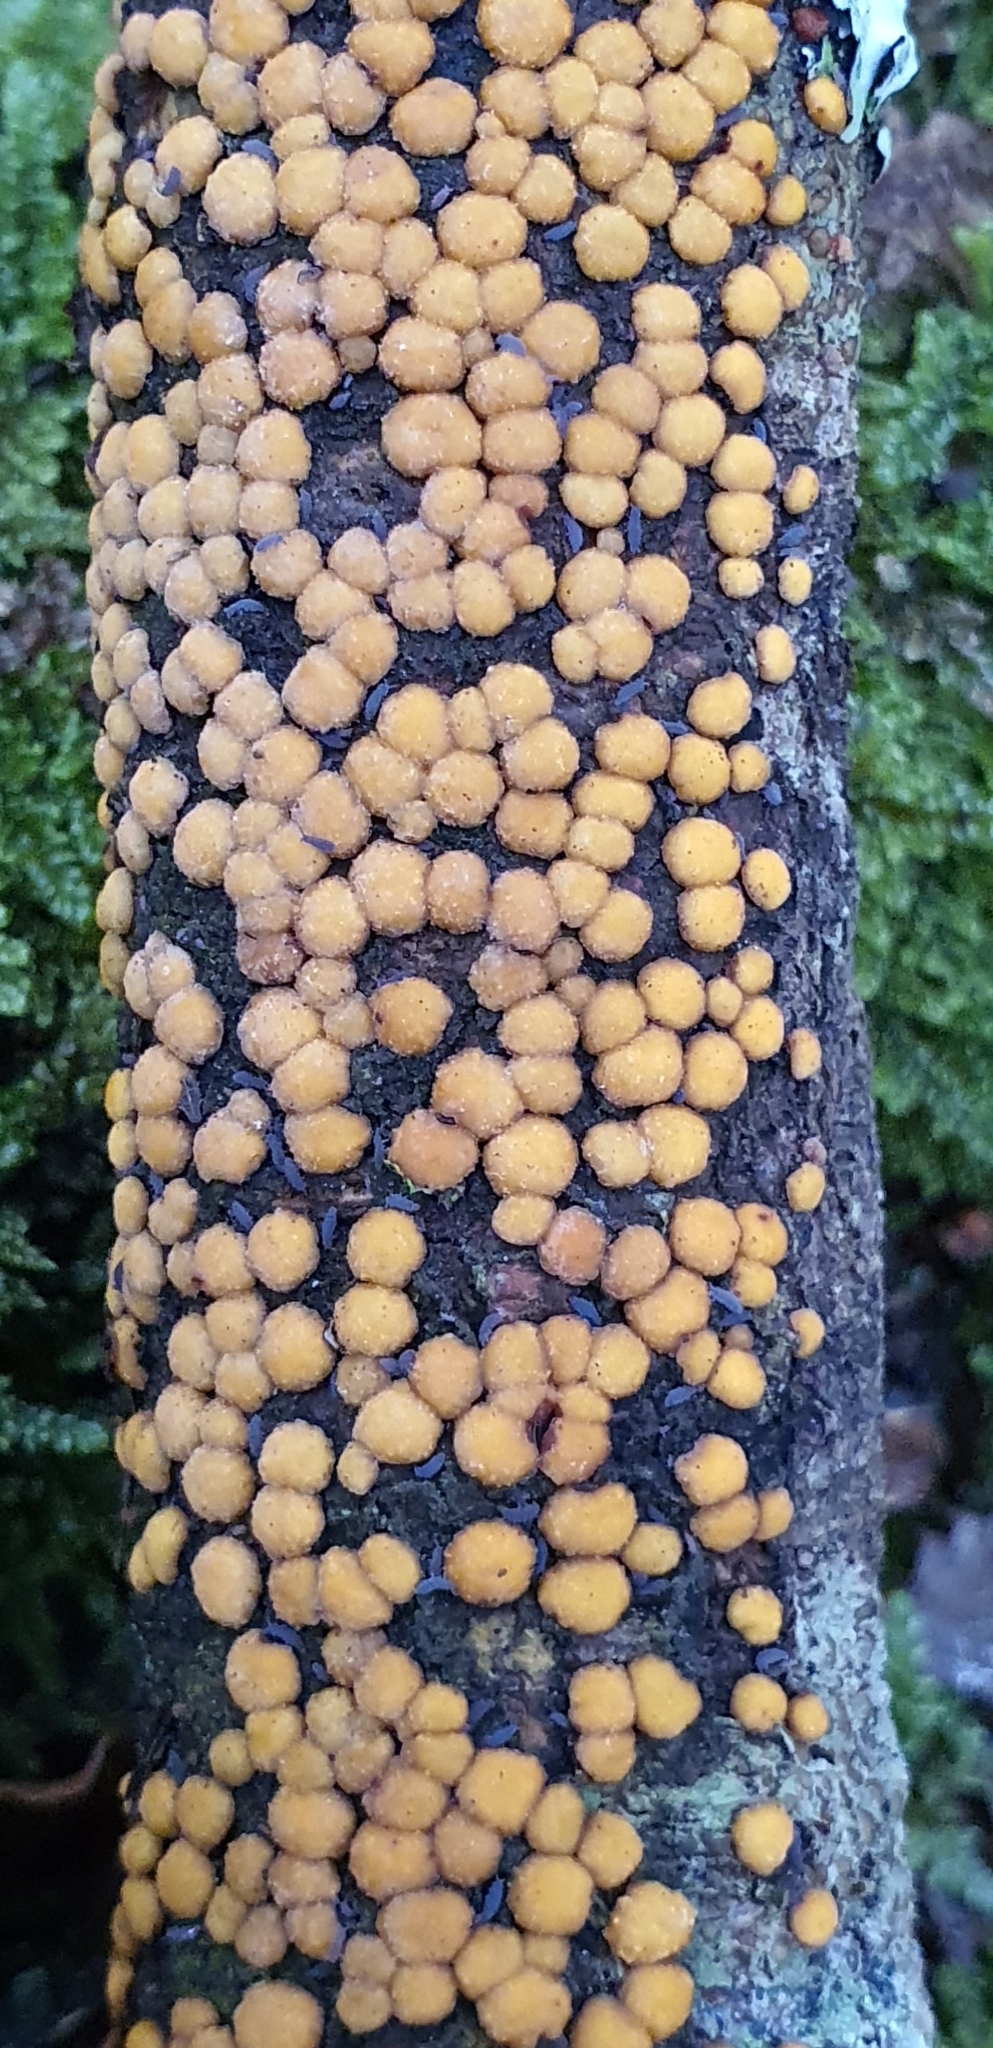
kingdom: Fungi
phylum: Basidiomycota
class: Agaricomycetes
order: Russulales
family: Stereaceae
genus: Aleurodiscus
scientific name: Aleurodiscus berggrenii
